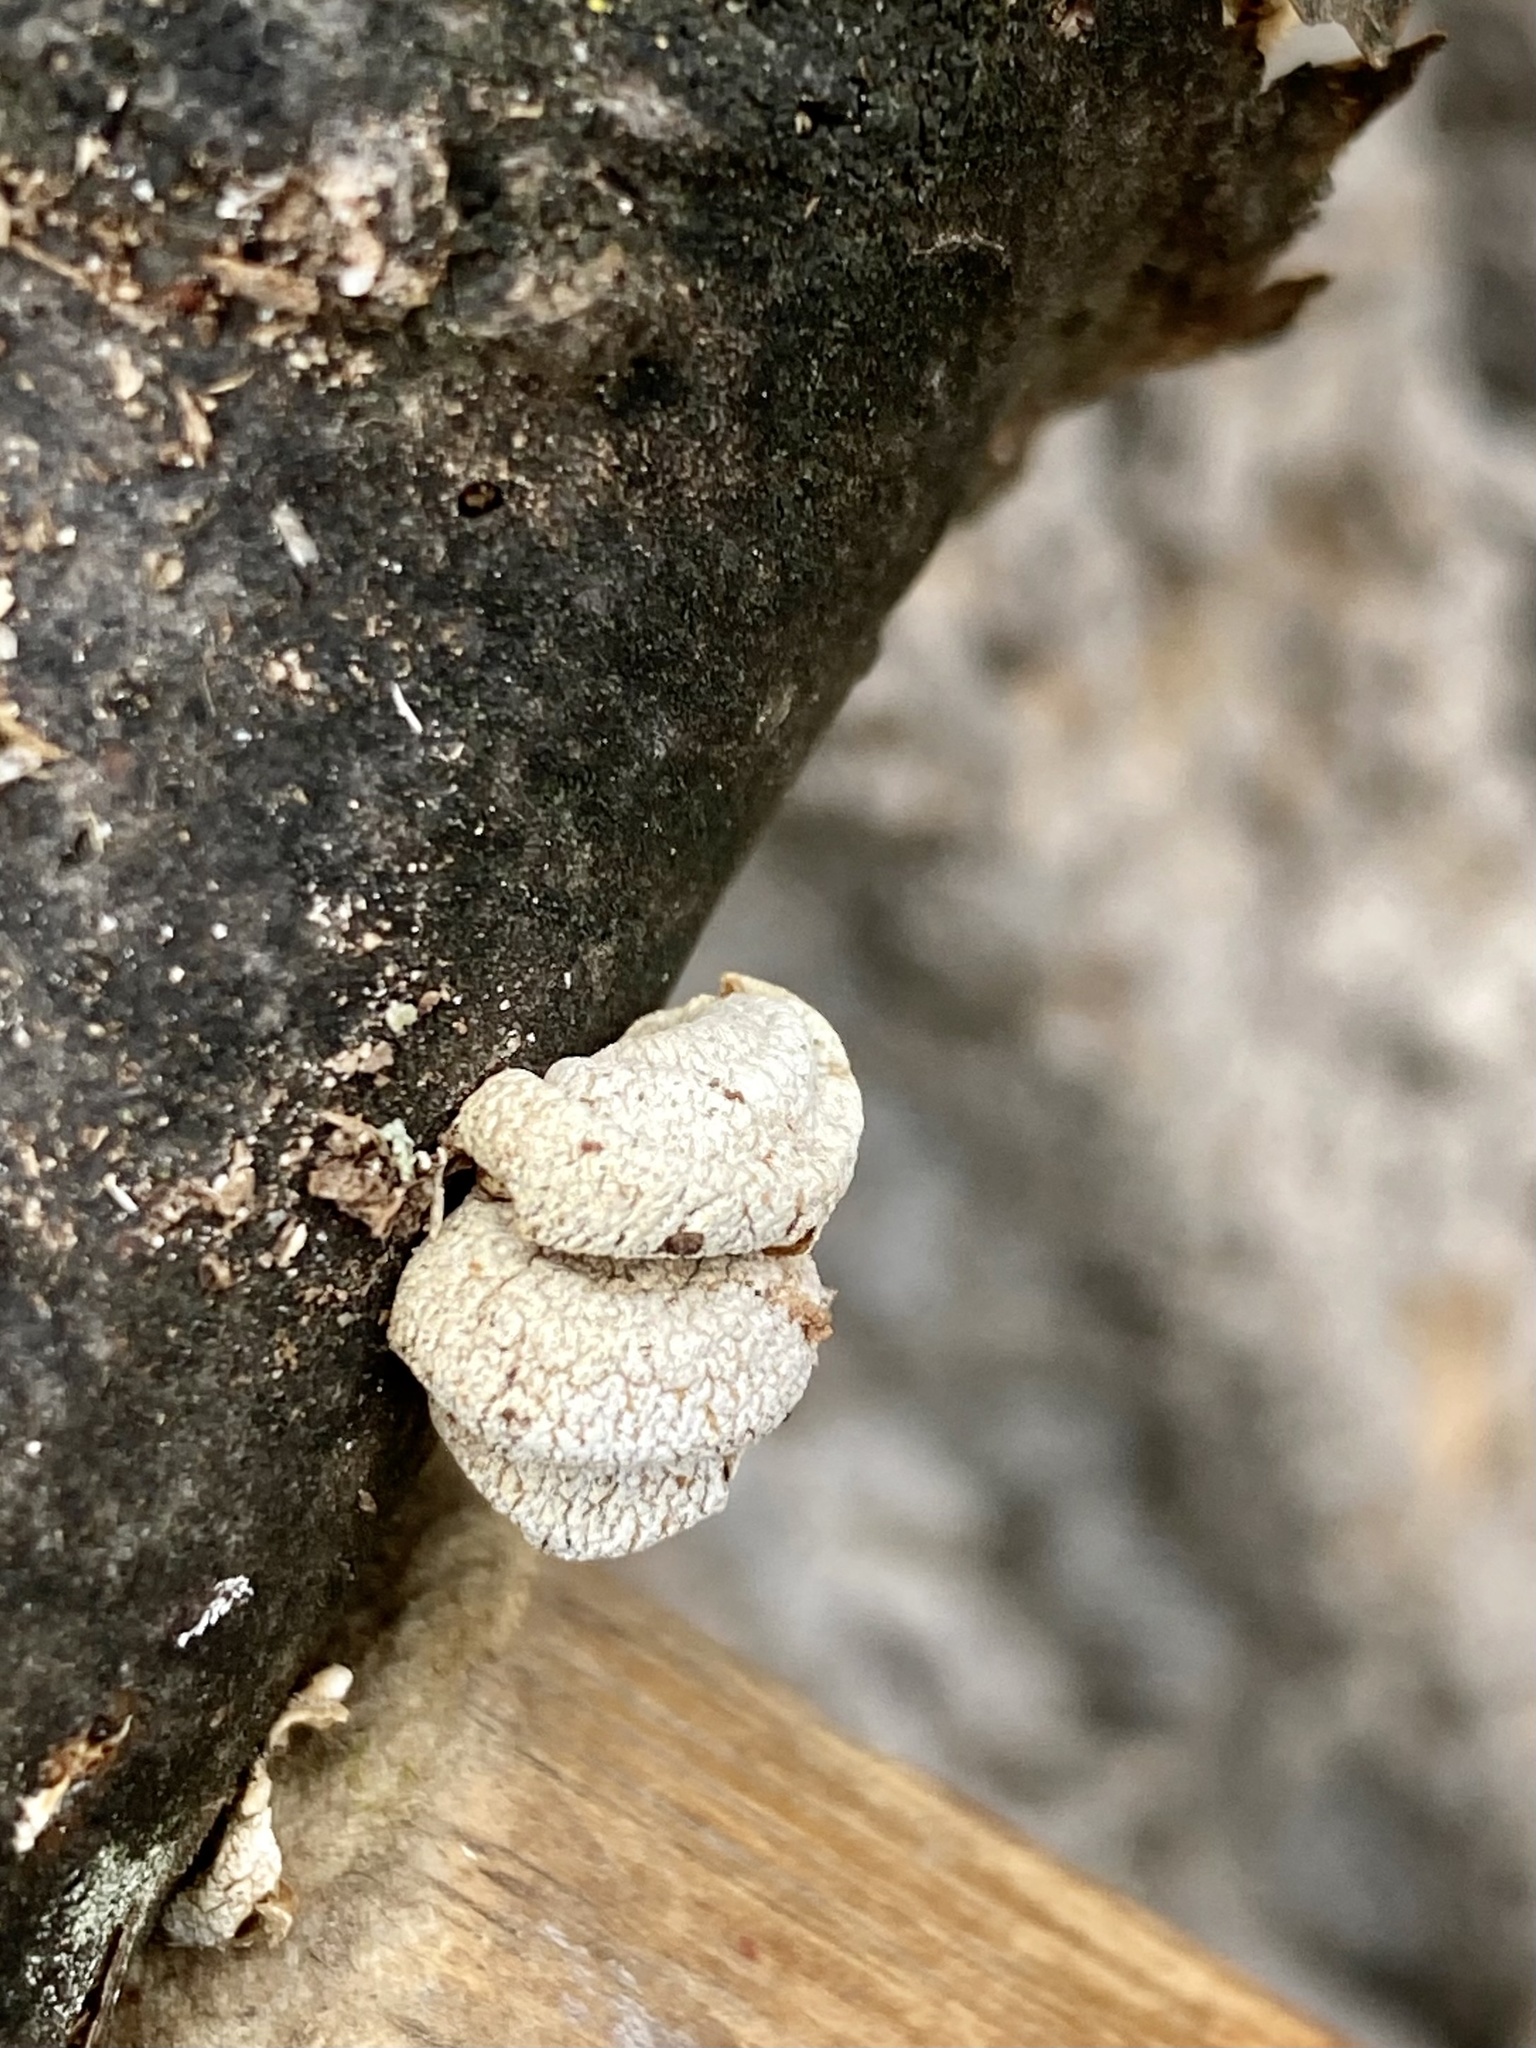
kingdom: Fungi
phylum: Basidiomycota
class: Agaricomycetes
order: Agaricales
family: Mycenaceae
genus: Panellus
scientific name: Panellus stipticus
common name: Bitter oysterling
